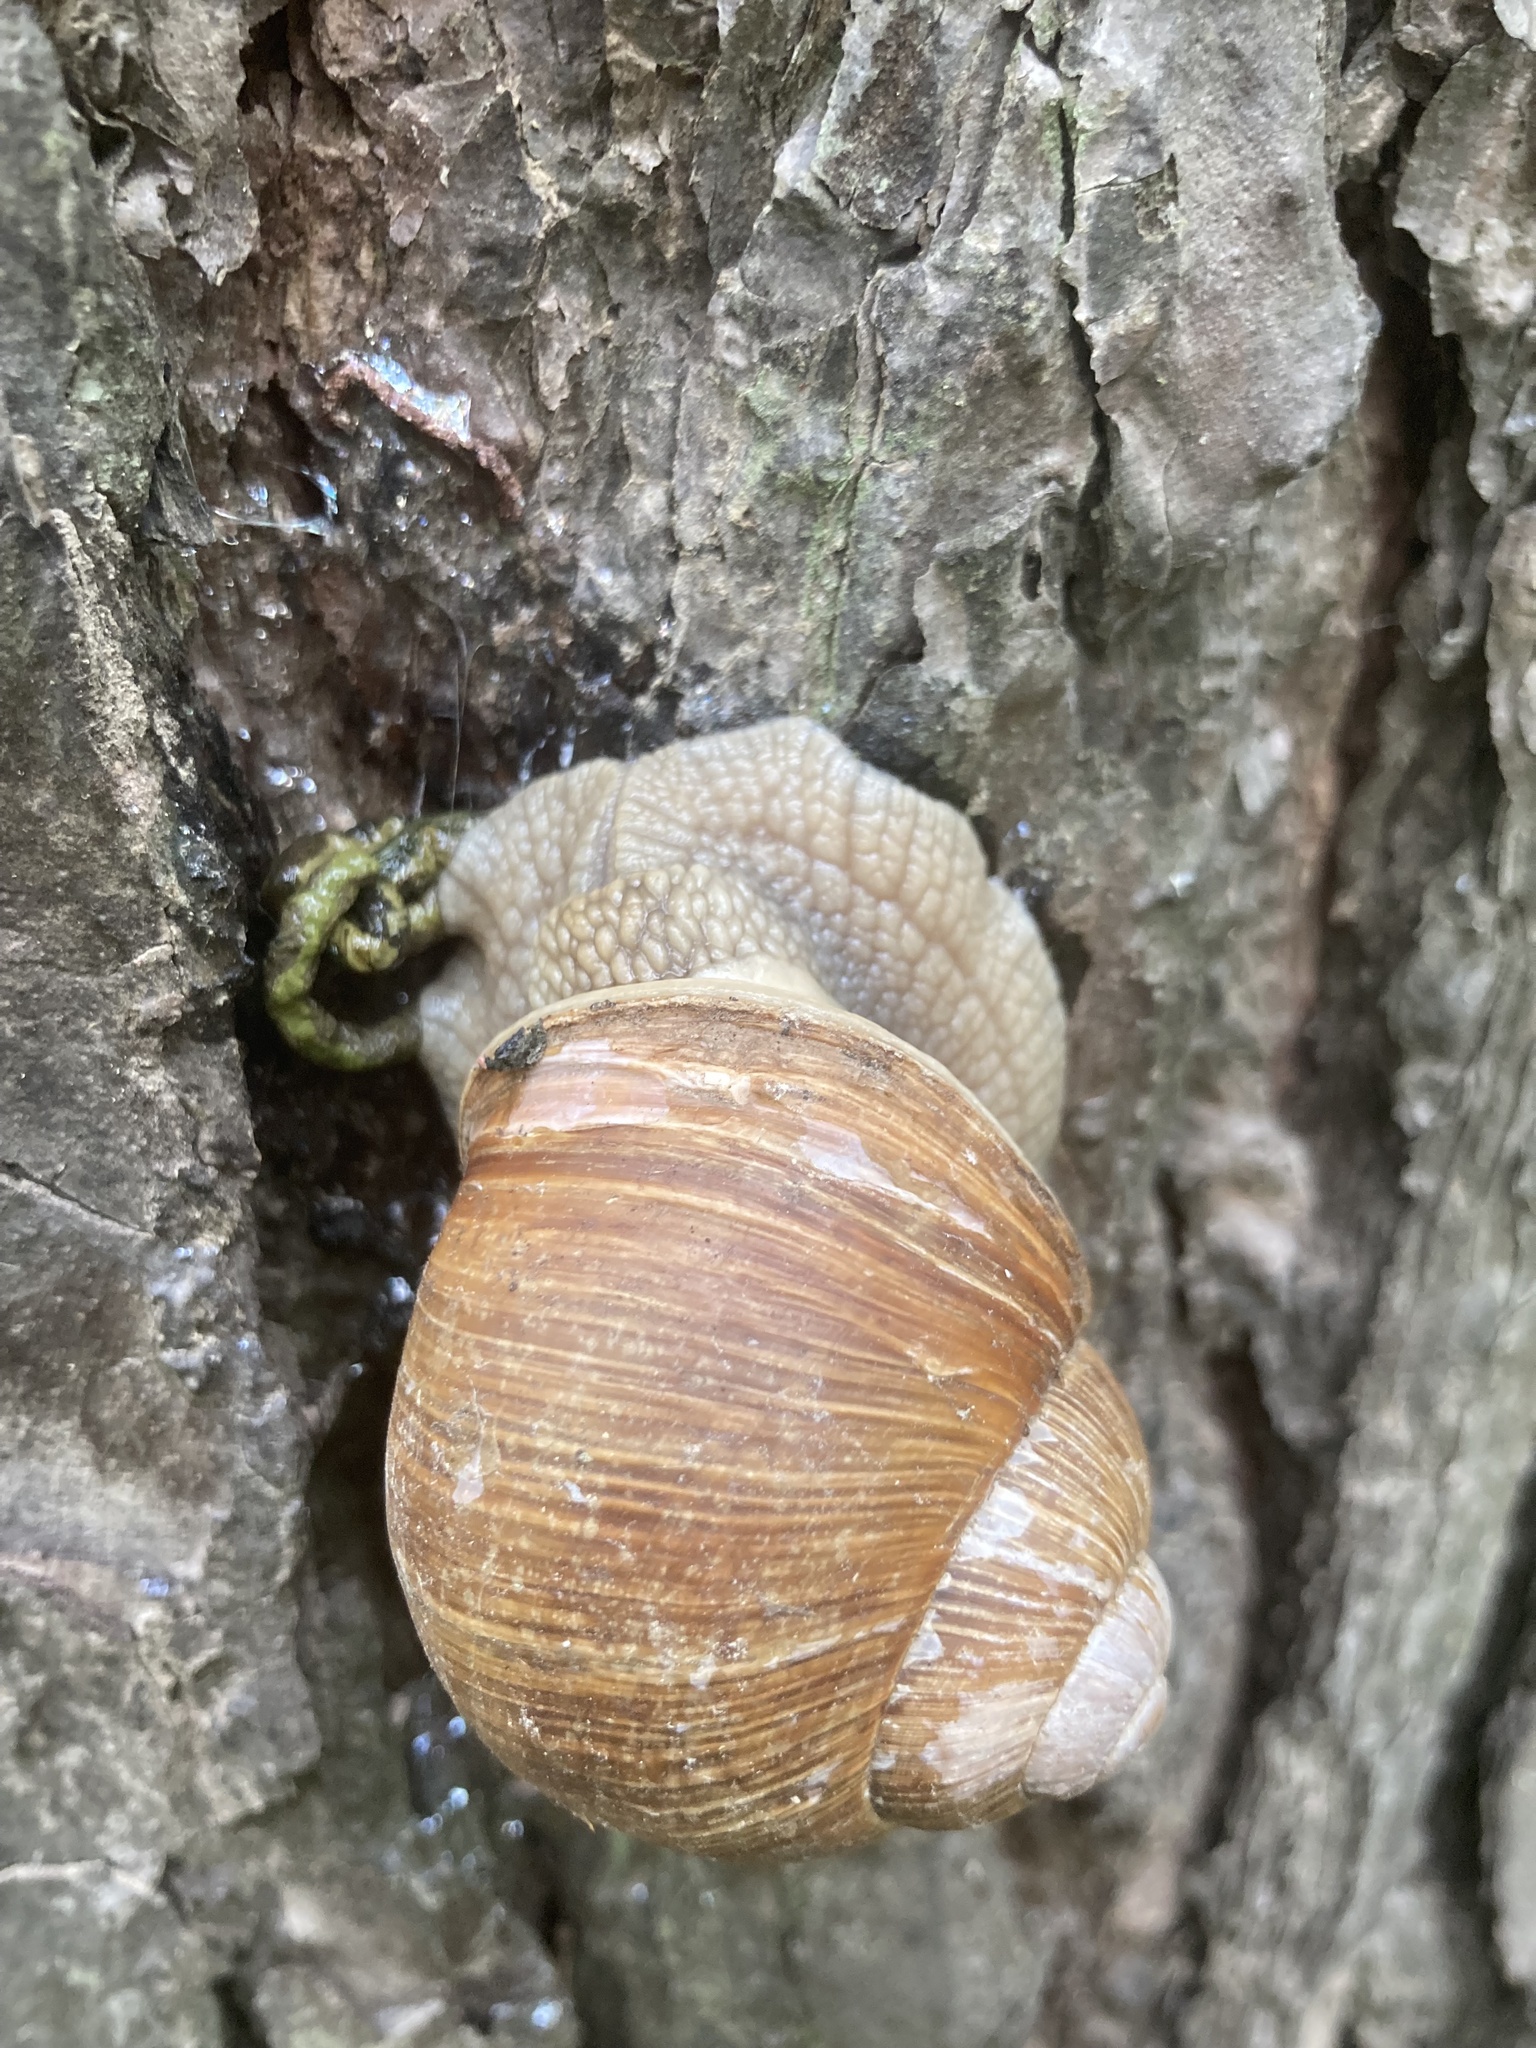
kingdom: Animalia
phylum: Mollusca
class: Gastropoda
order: Stylommatophora
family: Helicidae
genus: Helix
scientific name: Helix pomatia
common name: Roman snail
